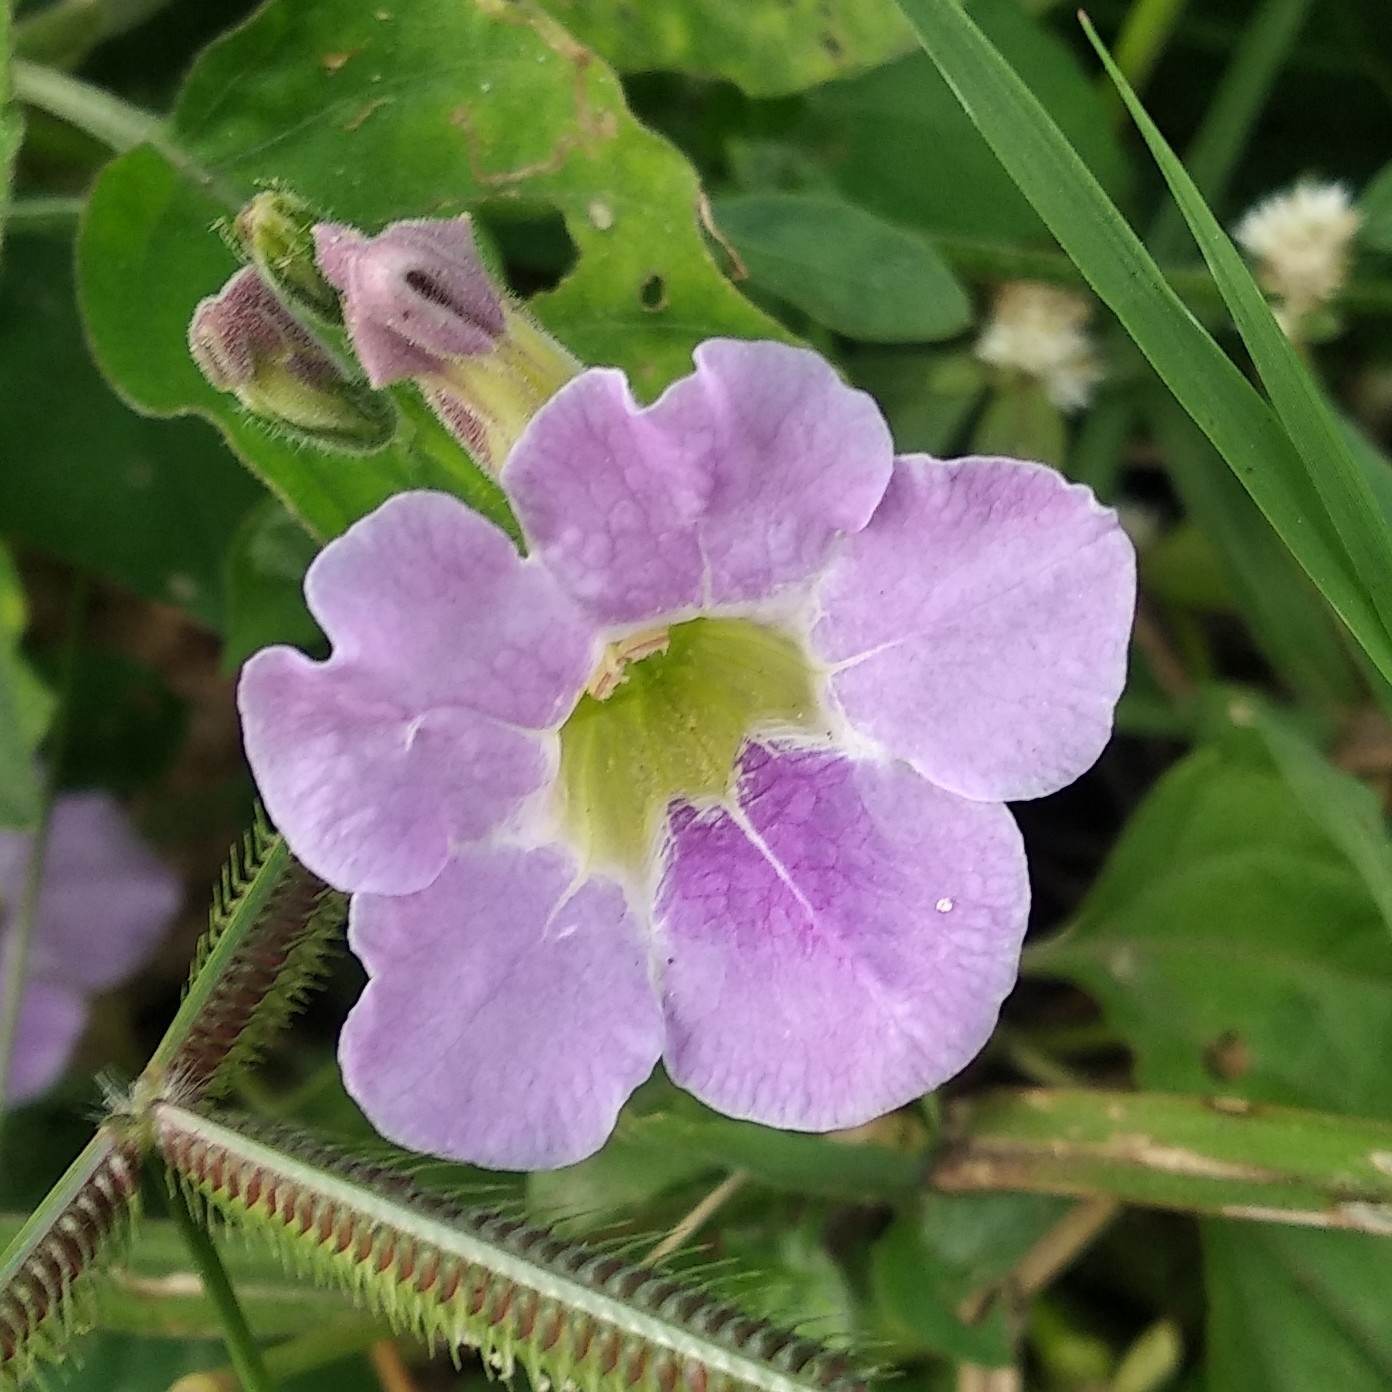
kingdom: Plantae
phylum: Tracheophyta
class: Magnoliopsida
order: Lamiales
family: Acanthaceae
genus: Asystasia
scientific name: Asystasia gangetica
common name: Chinese violet
